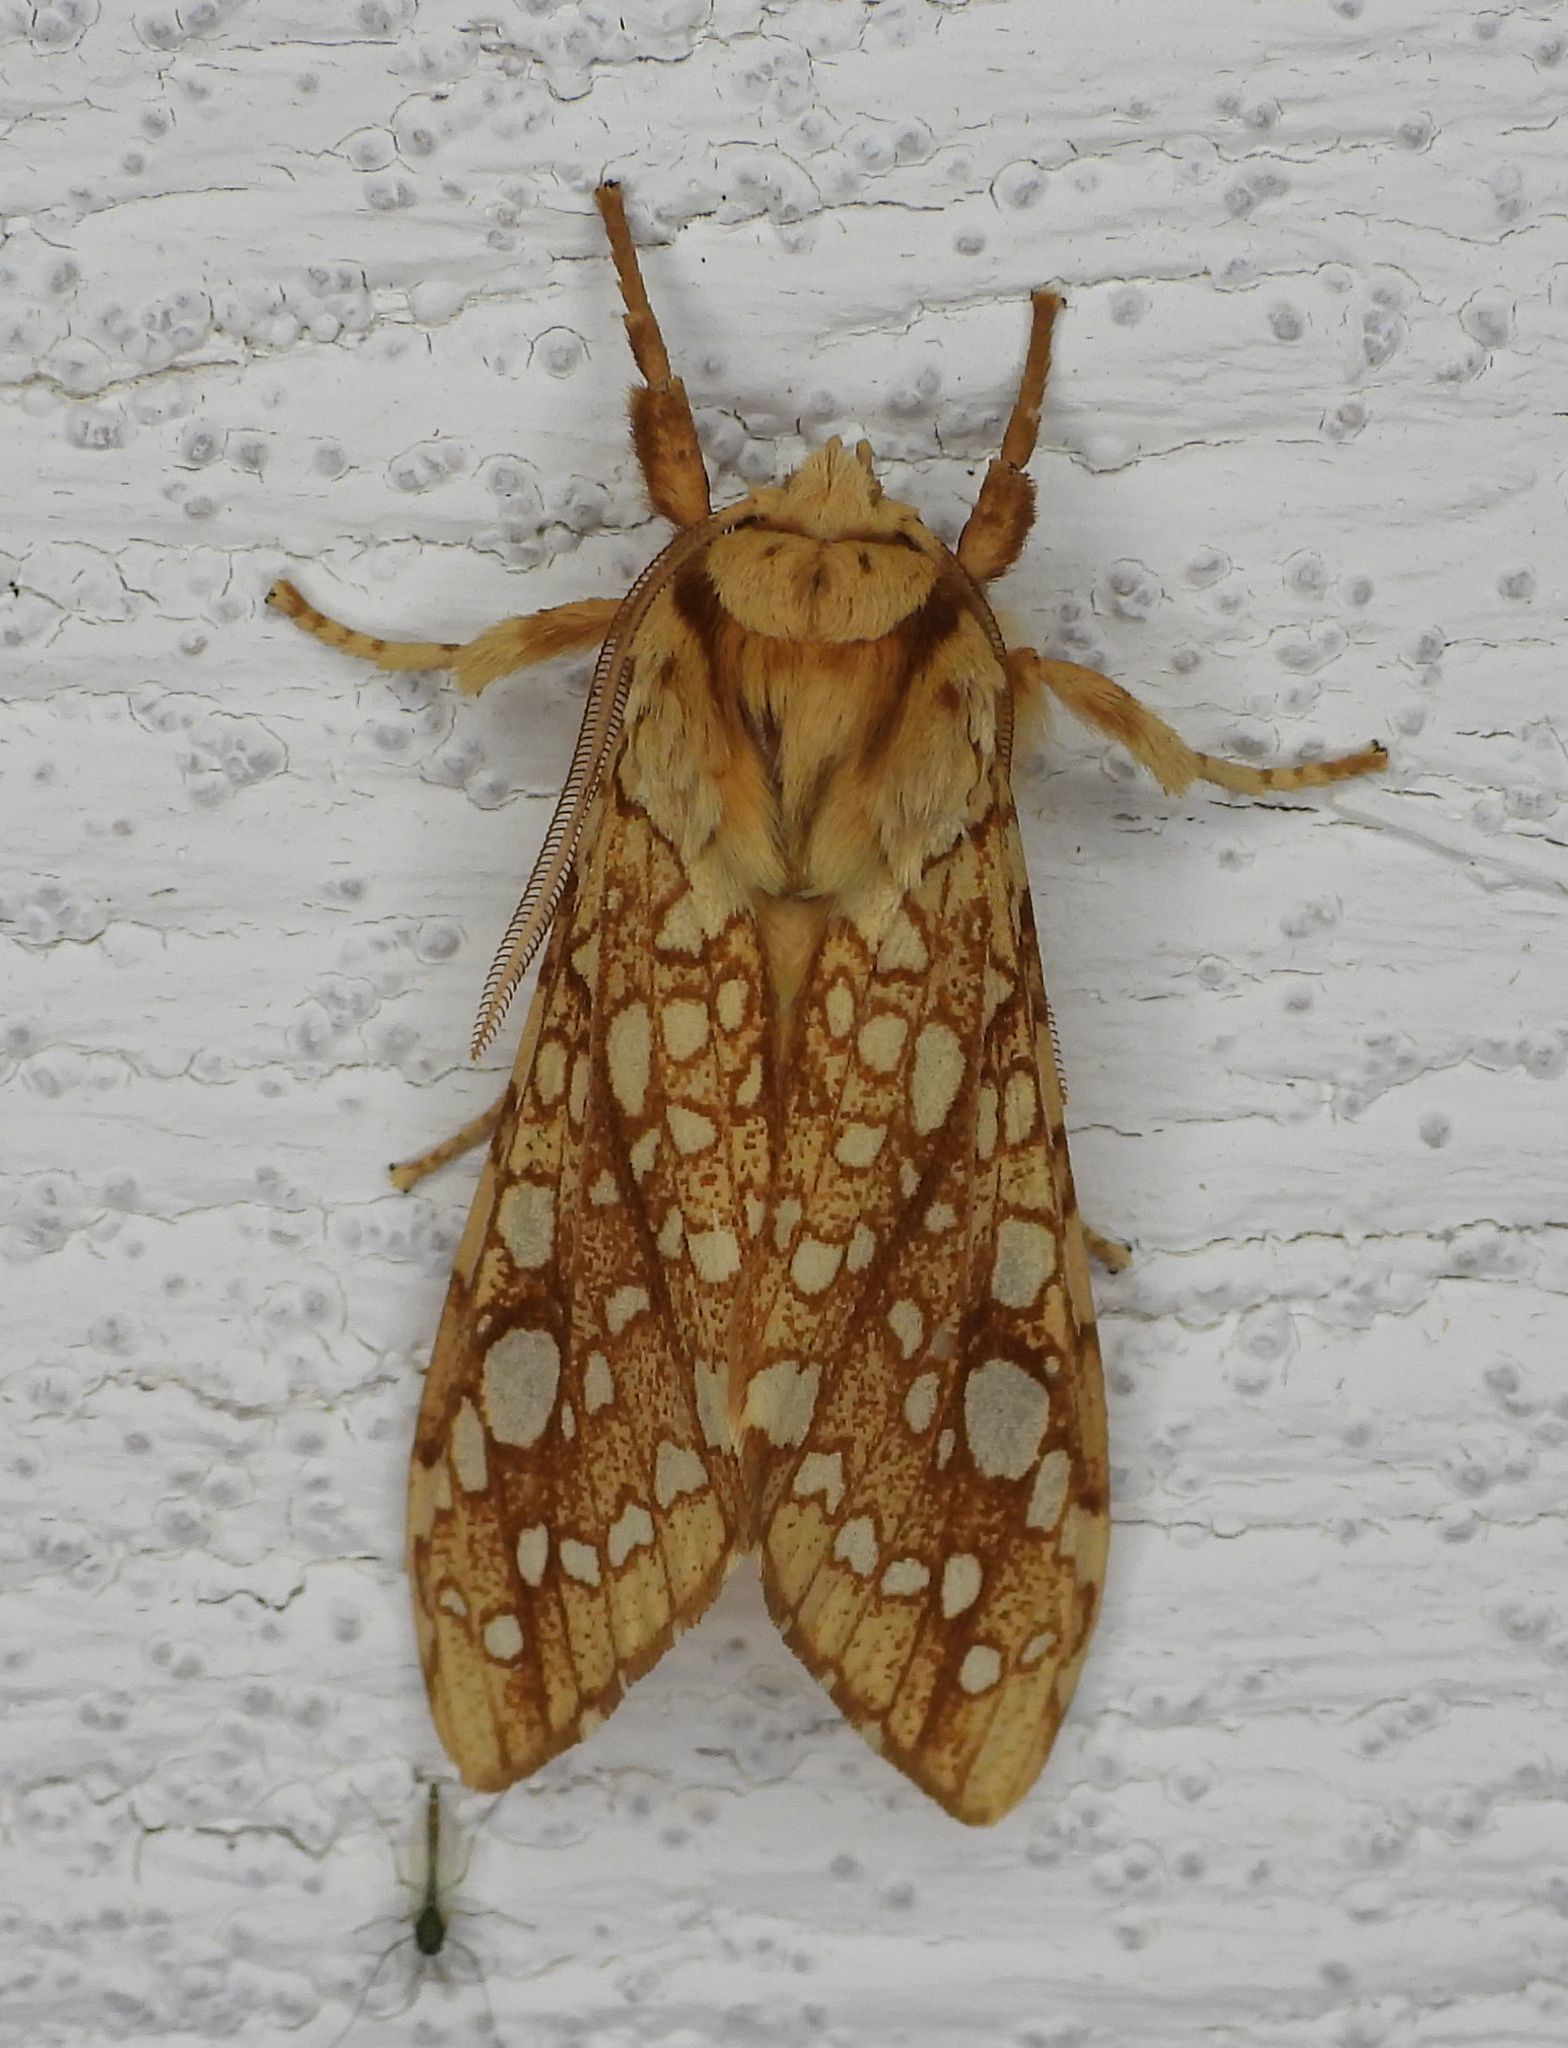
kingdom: Animalia
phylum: Arthropoda
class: Insecta
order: Lepidoptera
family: Erebidae
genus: Lophocampa
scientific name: Lophocampa caryae
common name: Hickory tussock moth
